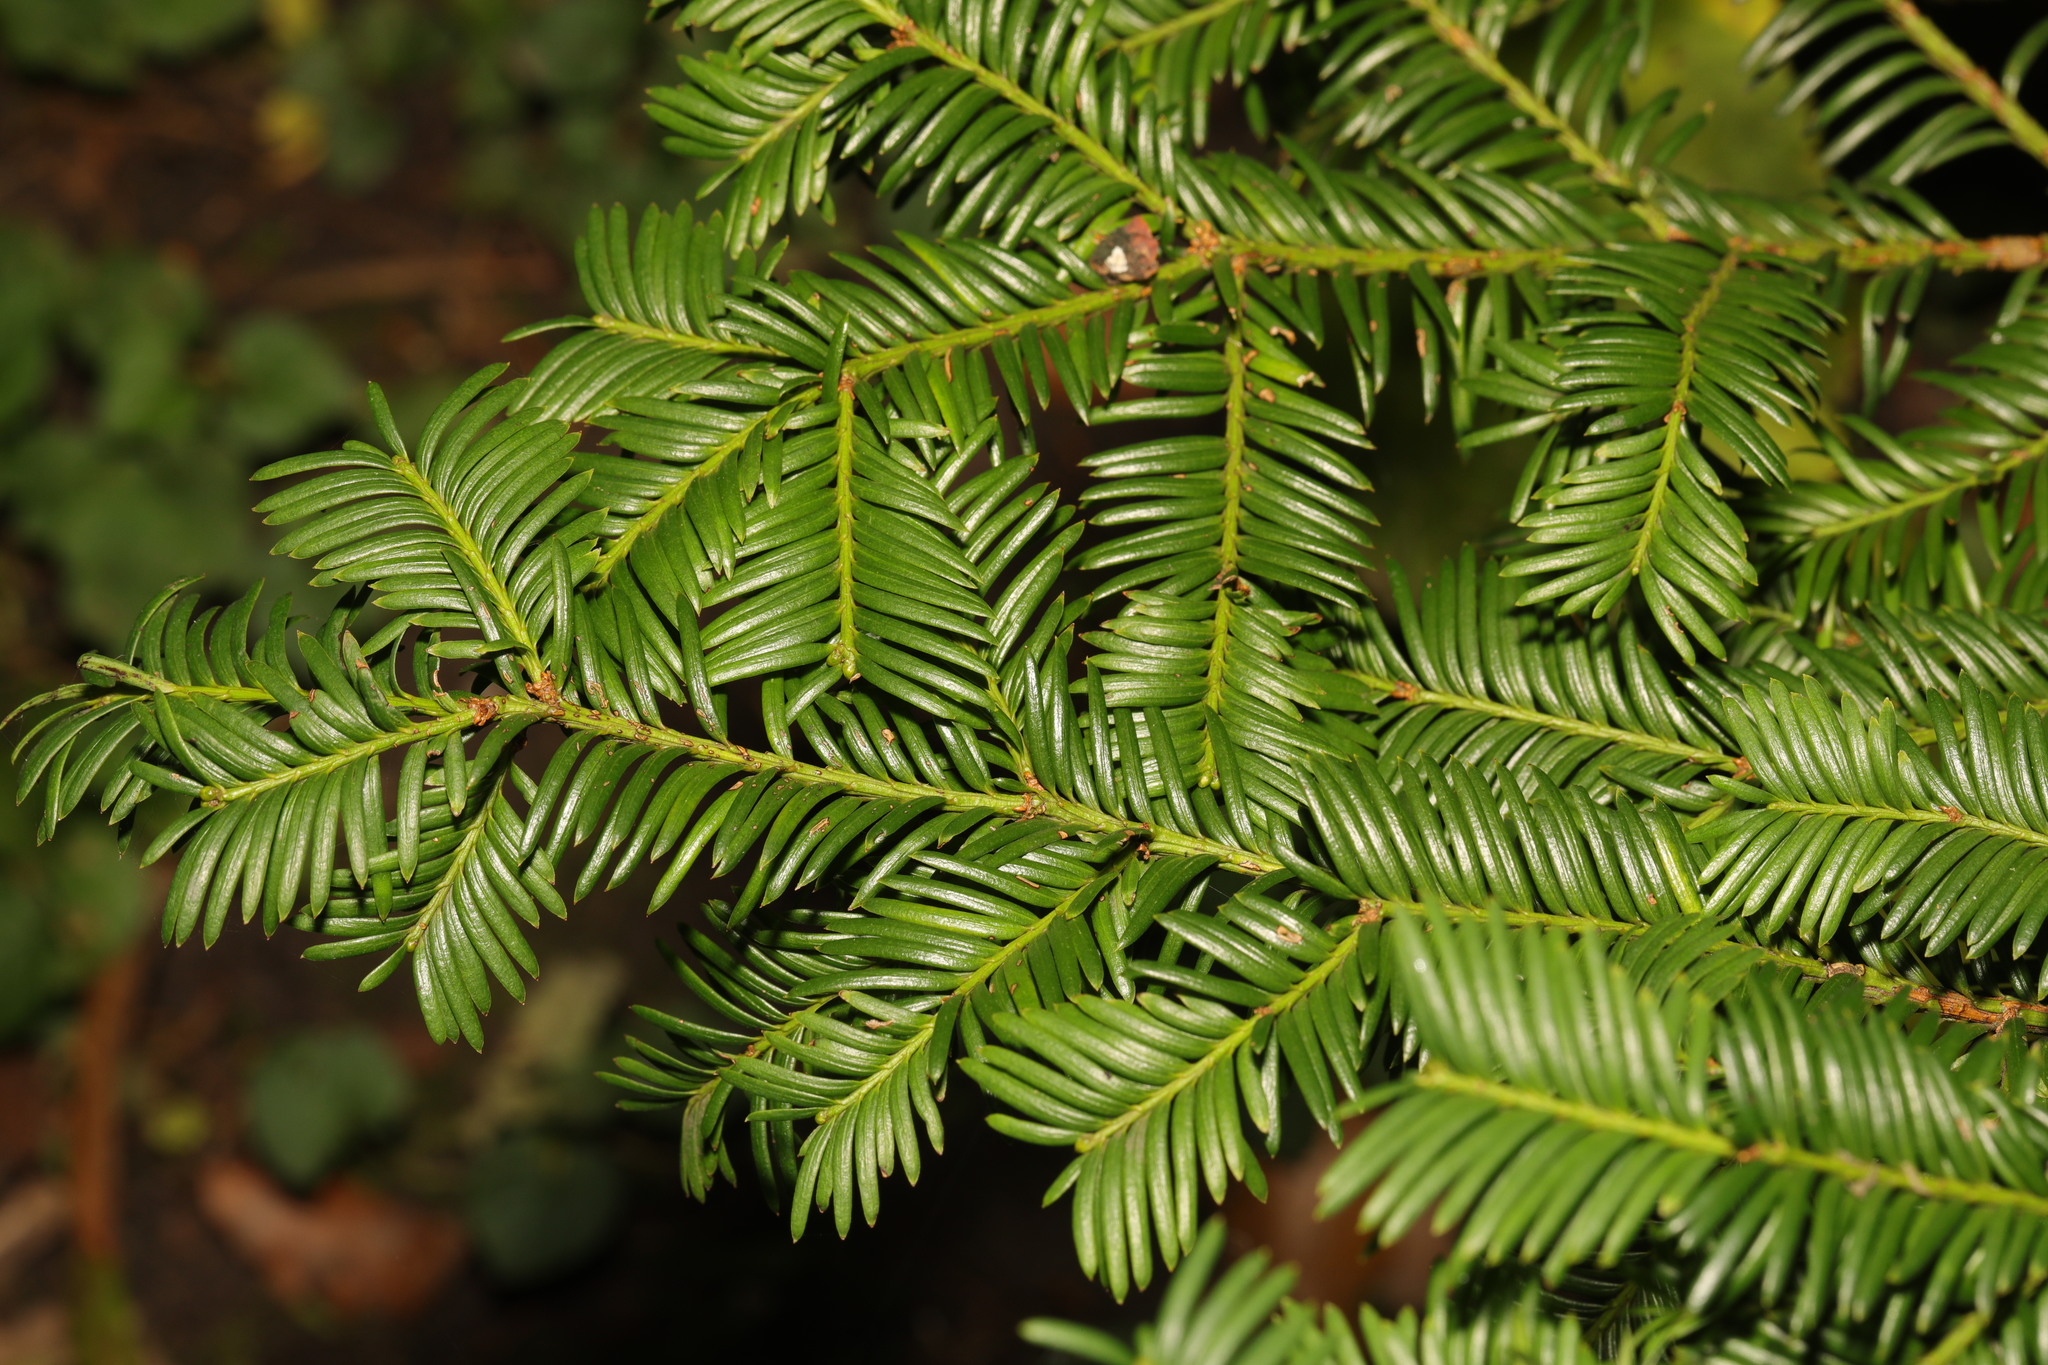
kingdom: Plantae
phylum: Tracheophyta
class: Pinopsida
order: Pinales
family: Taxaceae
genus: Taxus
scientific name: Taxus baccata
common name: Yew
